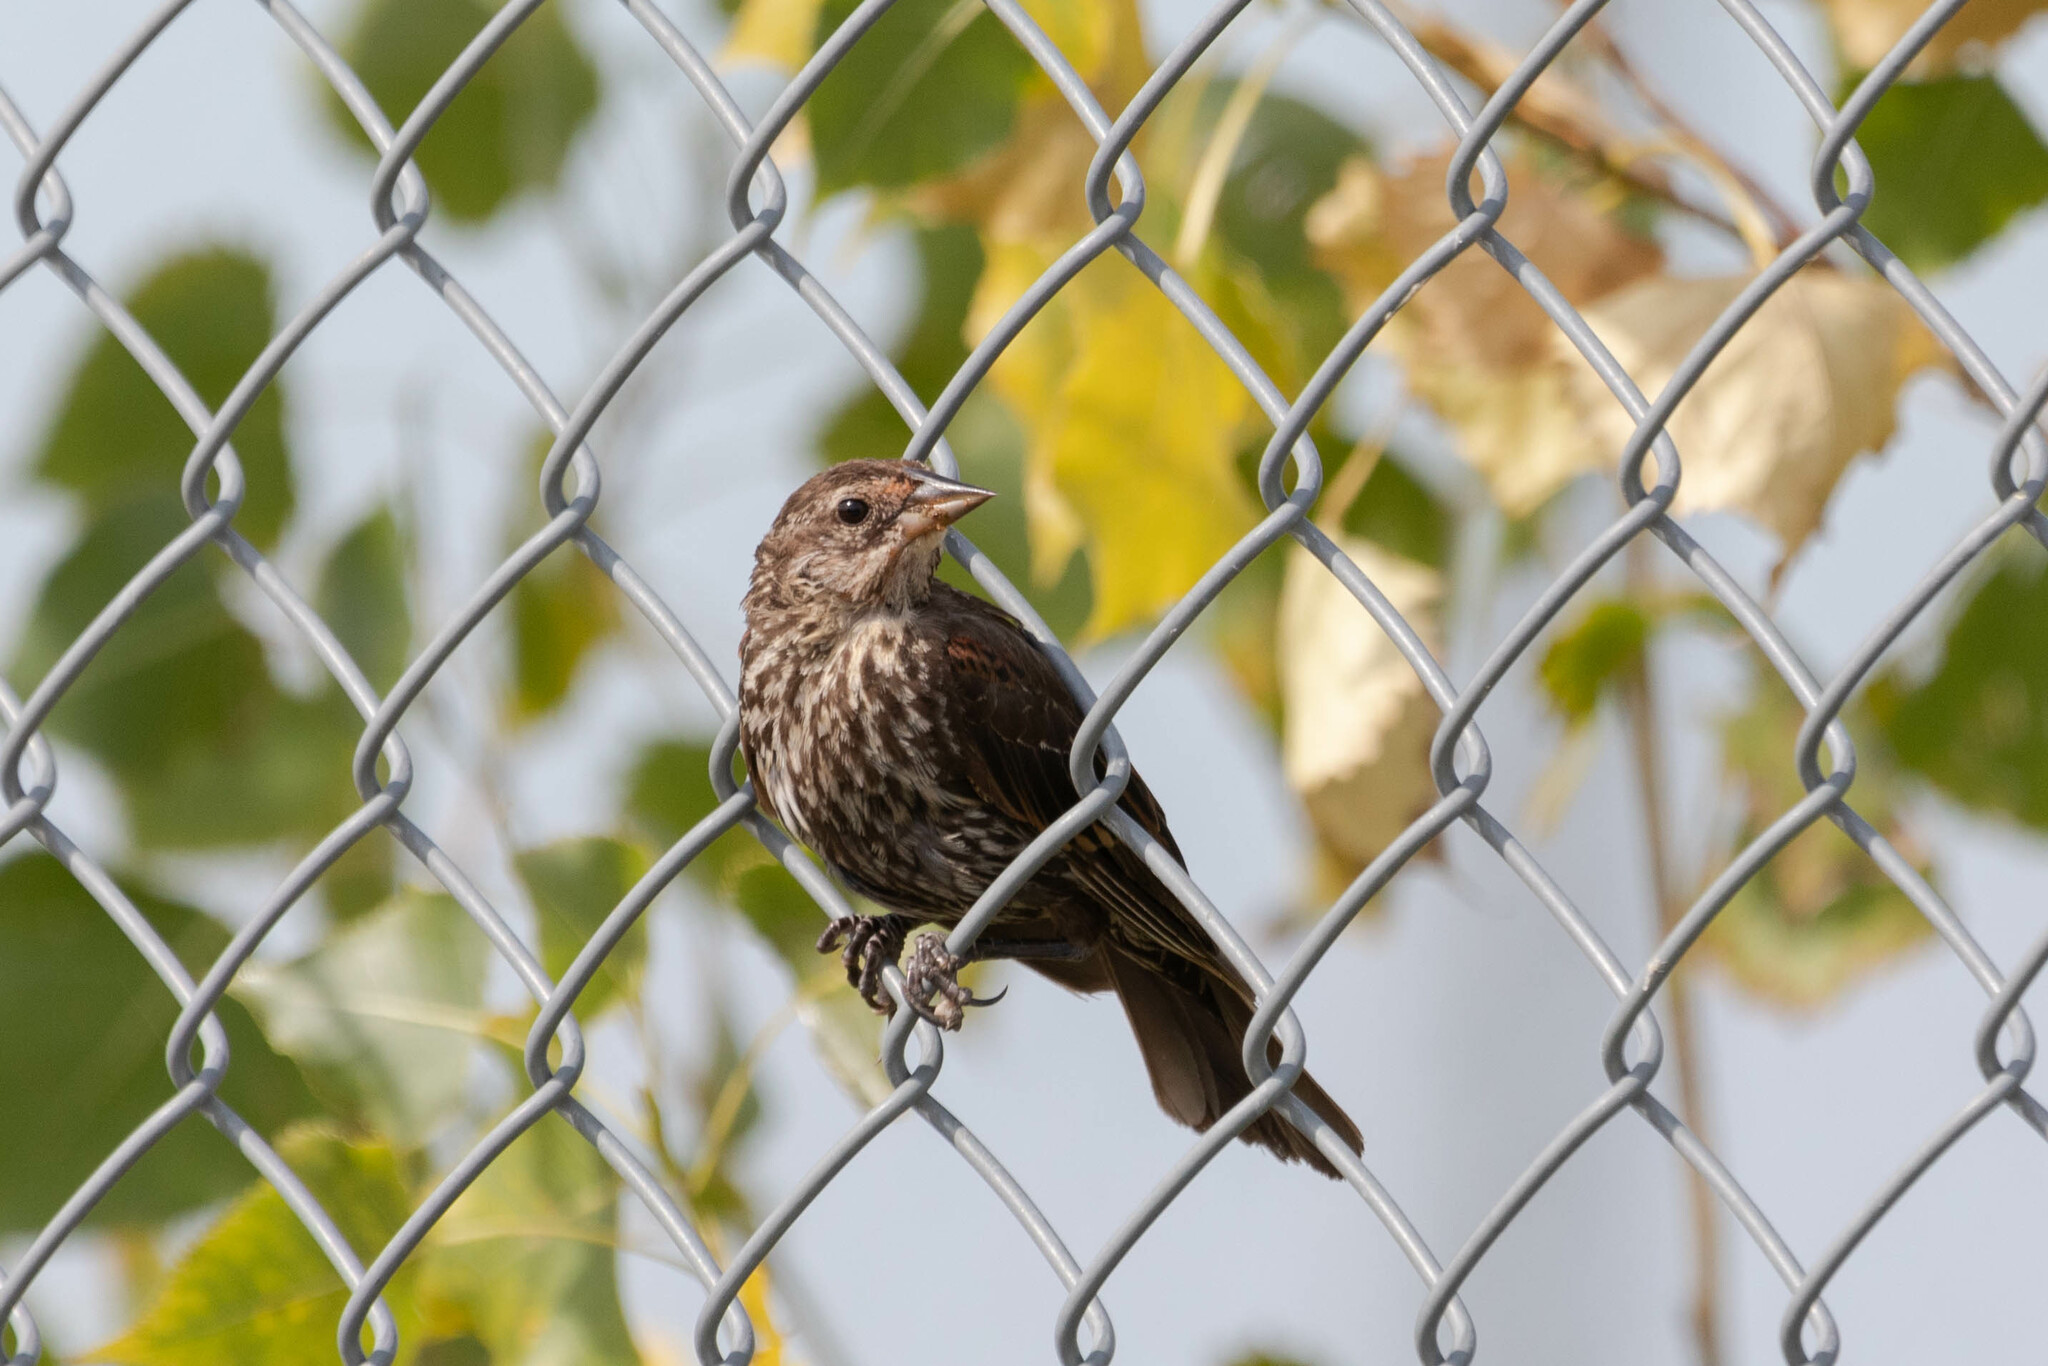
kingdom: Animalia
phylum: Chordata
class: Aves
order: Passeriformes
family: Icteridae
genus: Agelaius
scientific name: Agelaius phoeniceus
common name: Red-winged blackbird
